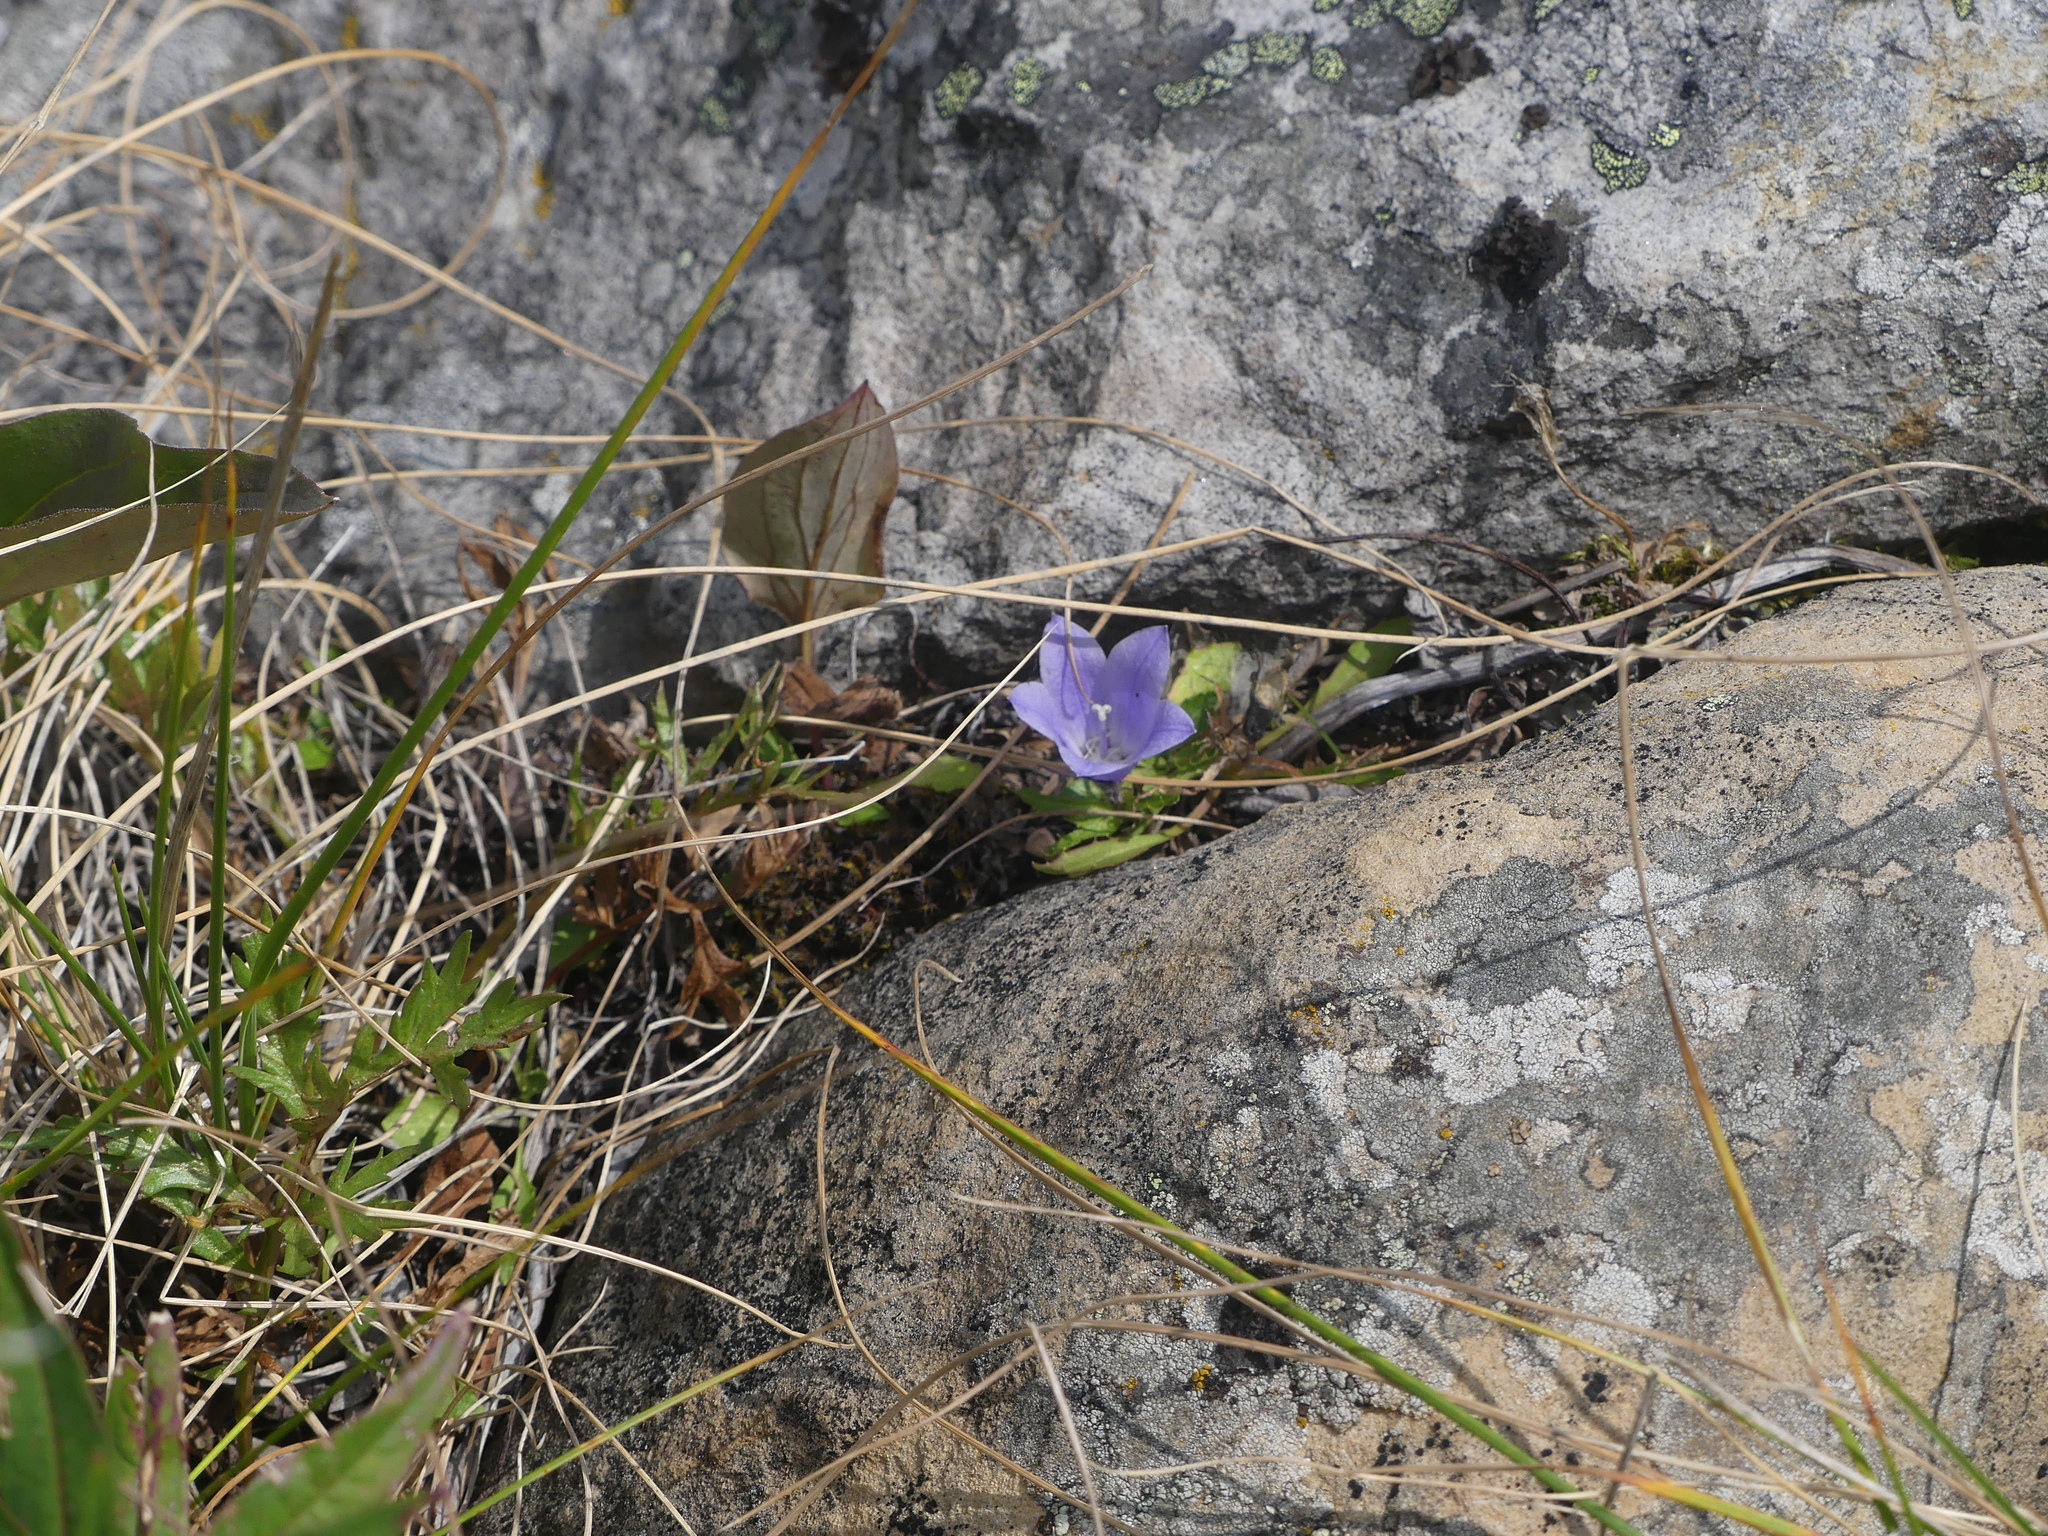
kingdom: Plantae
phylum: Tracheophyta
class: Magnoliopsida
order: Asterales
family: Campanulaceae
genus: Campanula
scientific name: Campanula lasiocarpa
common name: Mountain harebell
